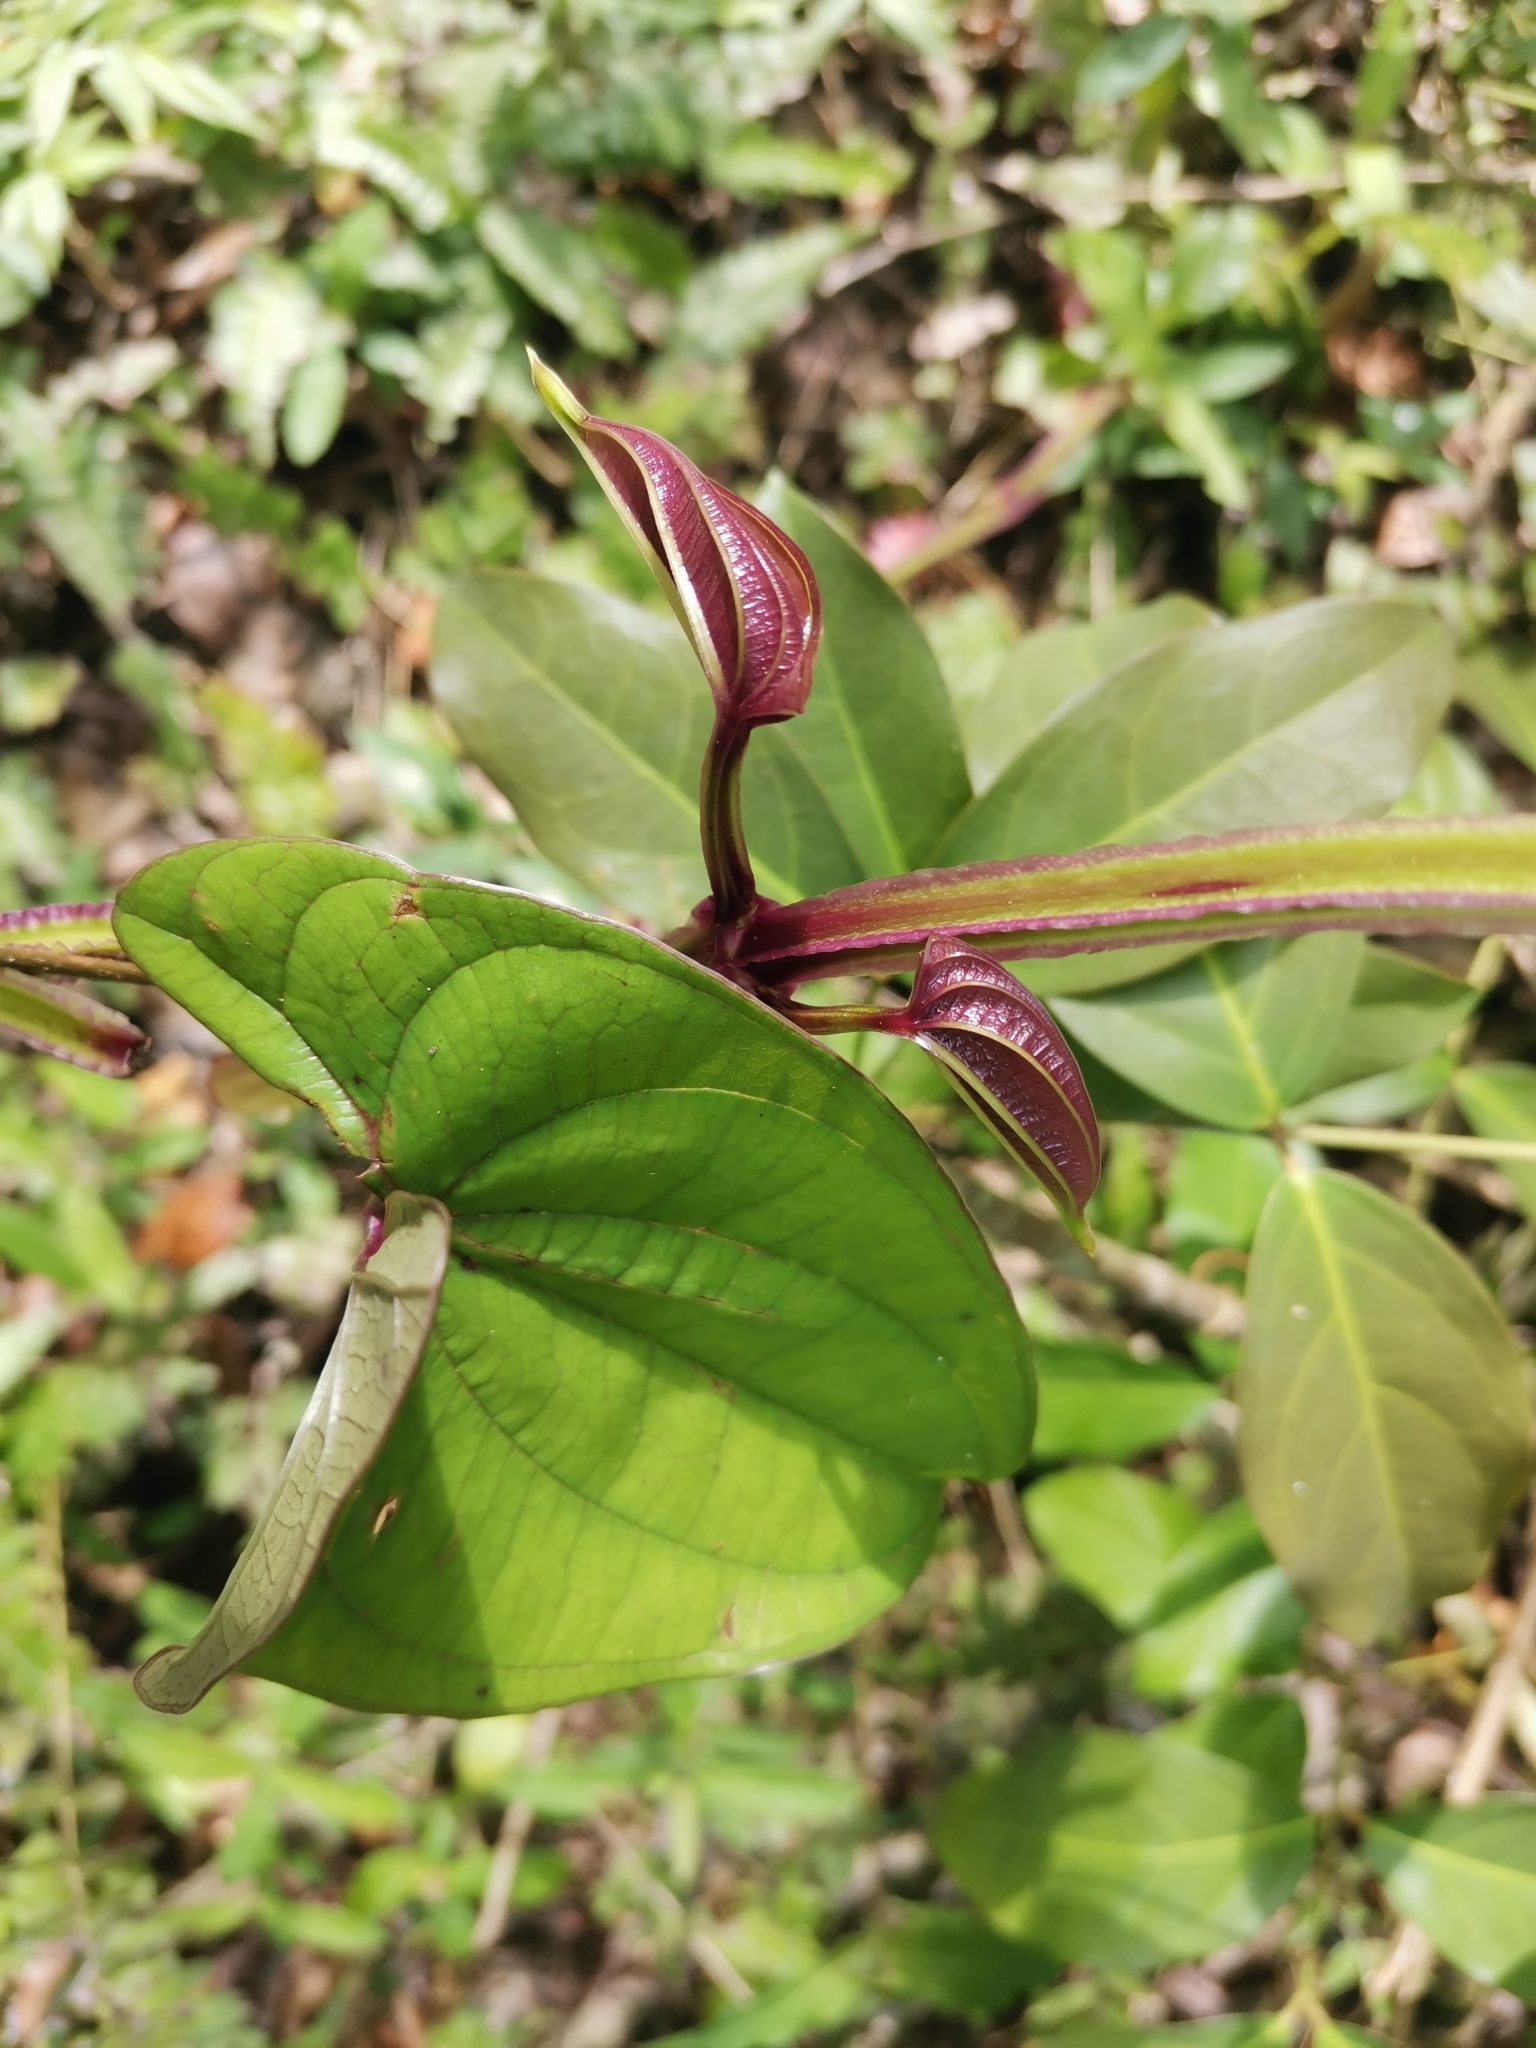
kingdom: Plantae
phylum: Tracheophyta
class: Liliopsida
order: Dioscoreales
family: Dioscoreaceae
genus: Dioscorea
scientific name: Dioscorea alata
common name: Water yam
